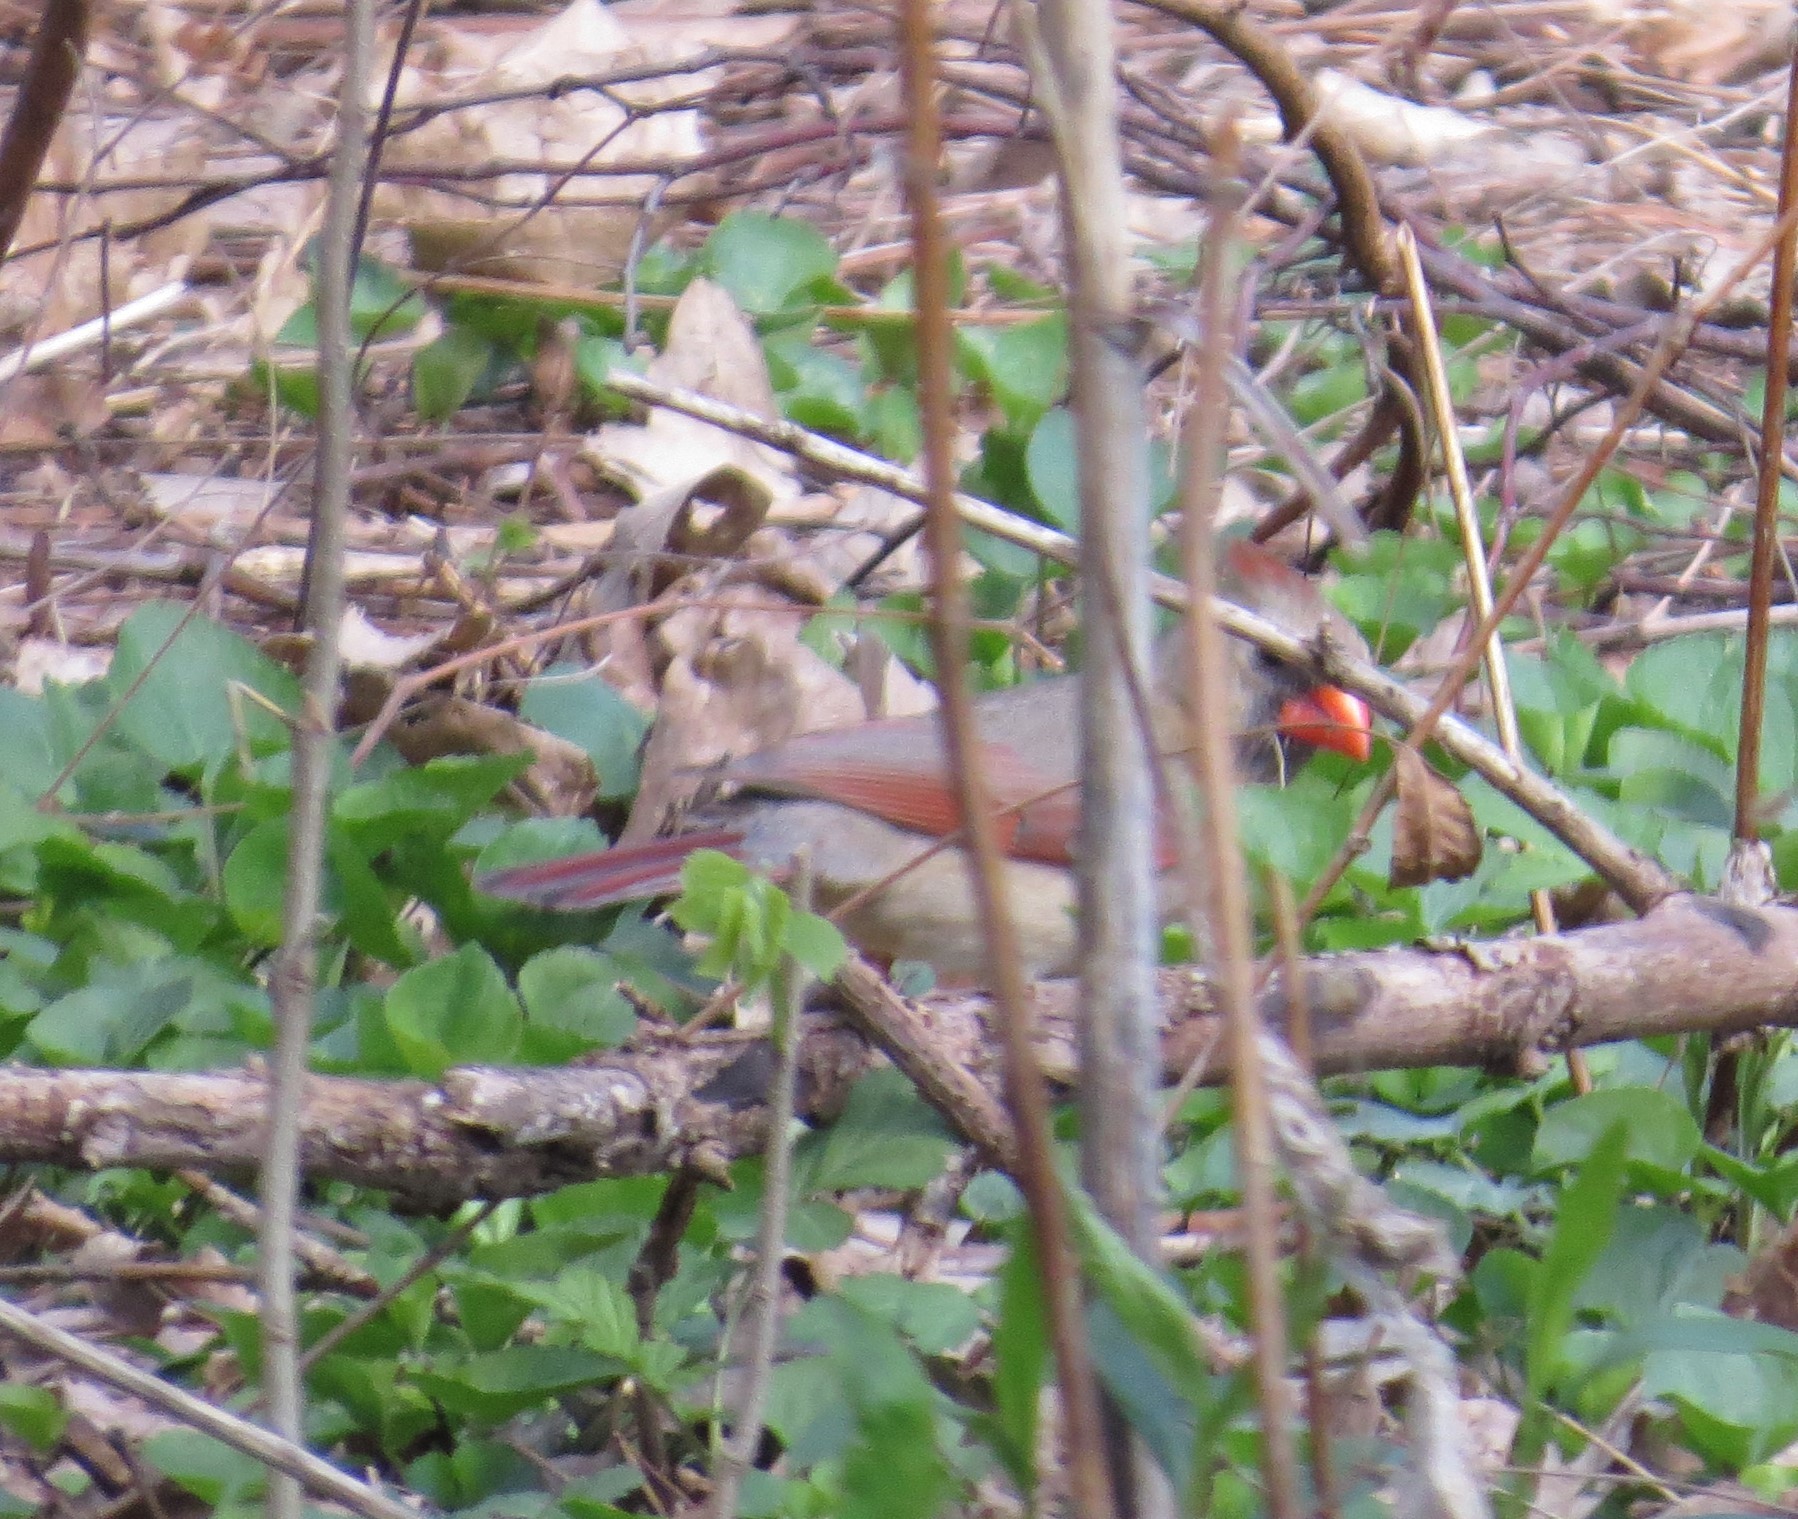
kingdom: Animalia
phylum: Chordata
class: Aves
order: Passeriformes
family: Cardinalidae
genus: Cardinalis
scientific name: Cardinalis cardinalis
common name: Northern cardinal
